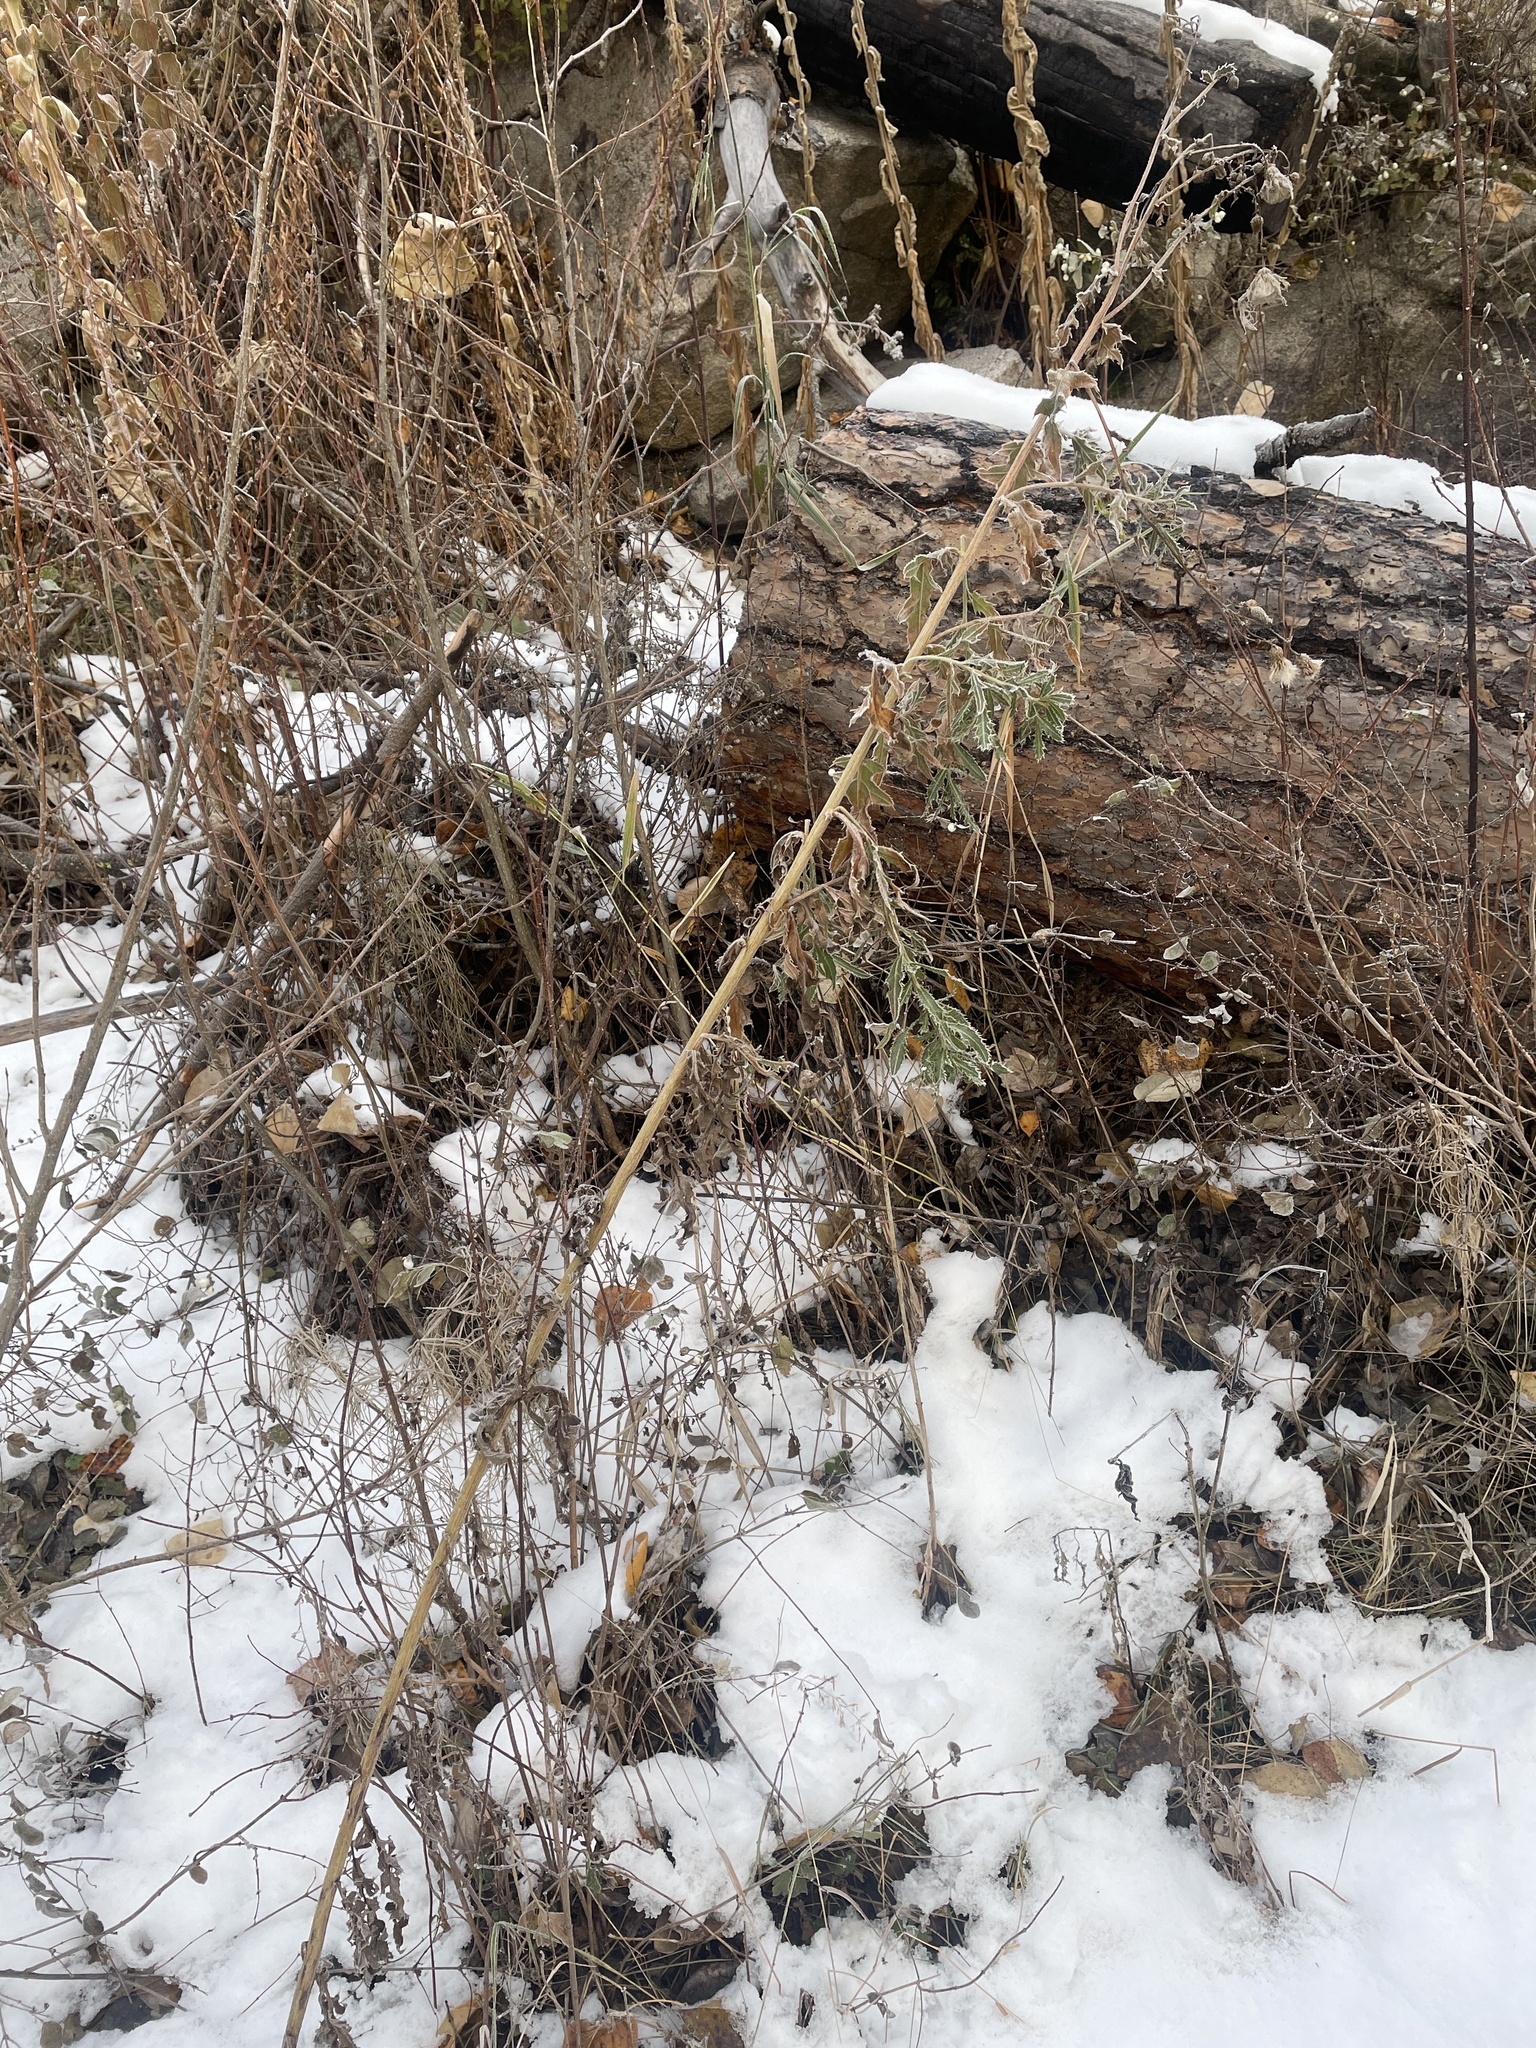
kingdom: Plantae
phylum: Tracheophyta
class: Magnoliopsida
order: Asterales
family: Asteraceae
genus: Cirsium
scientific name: Cirsium arvense
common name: Creeping thistle
